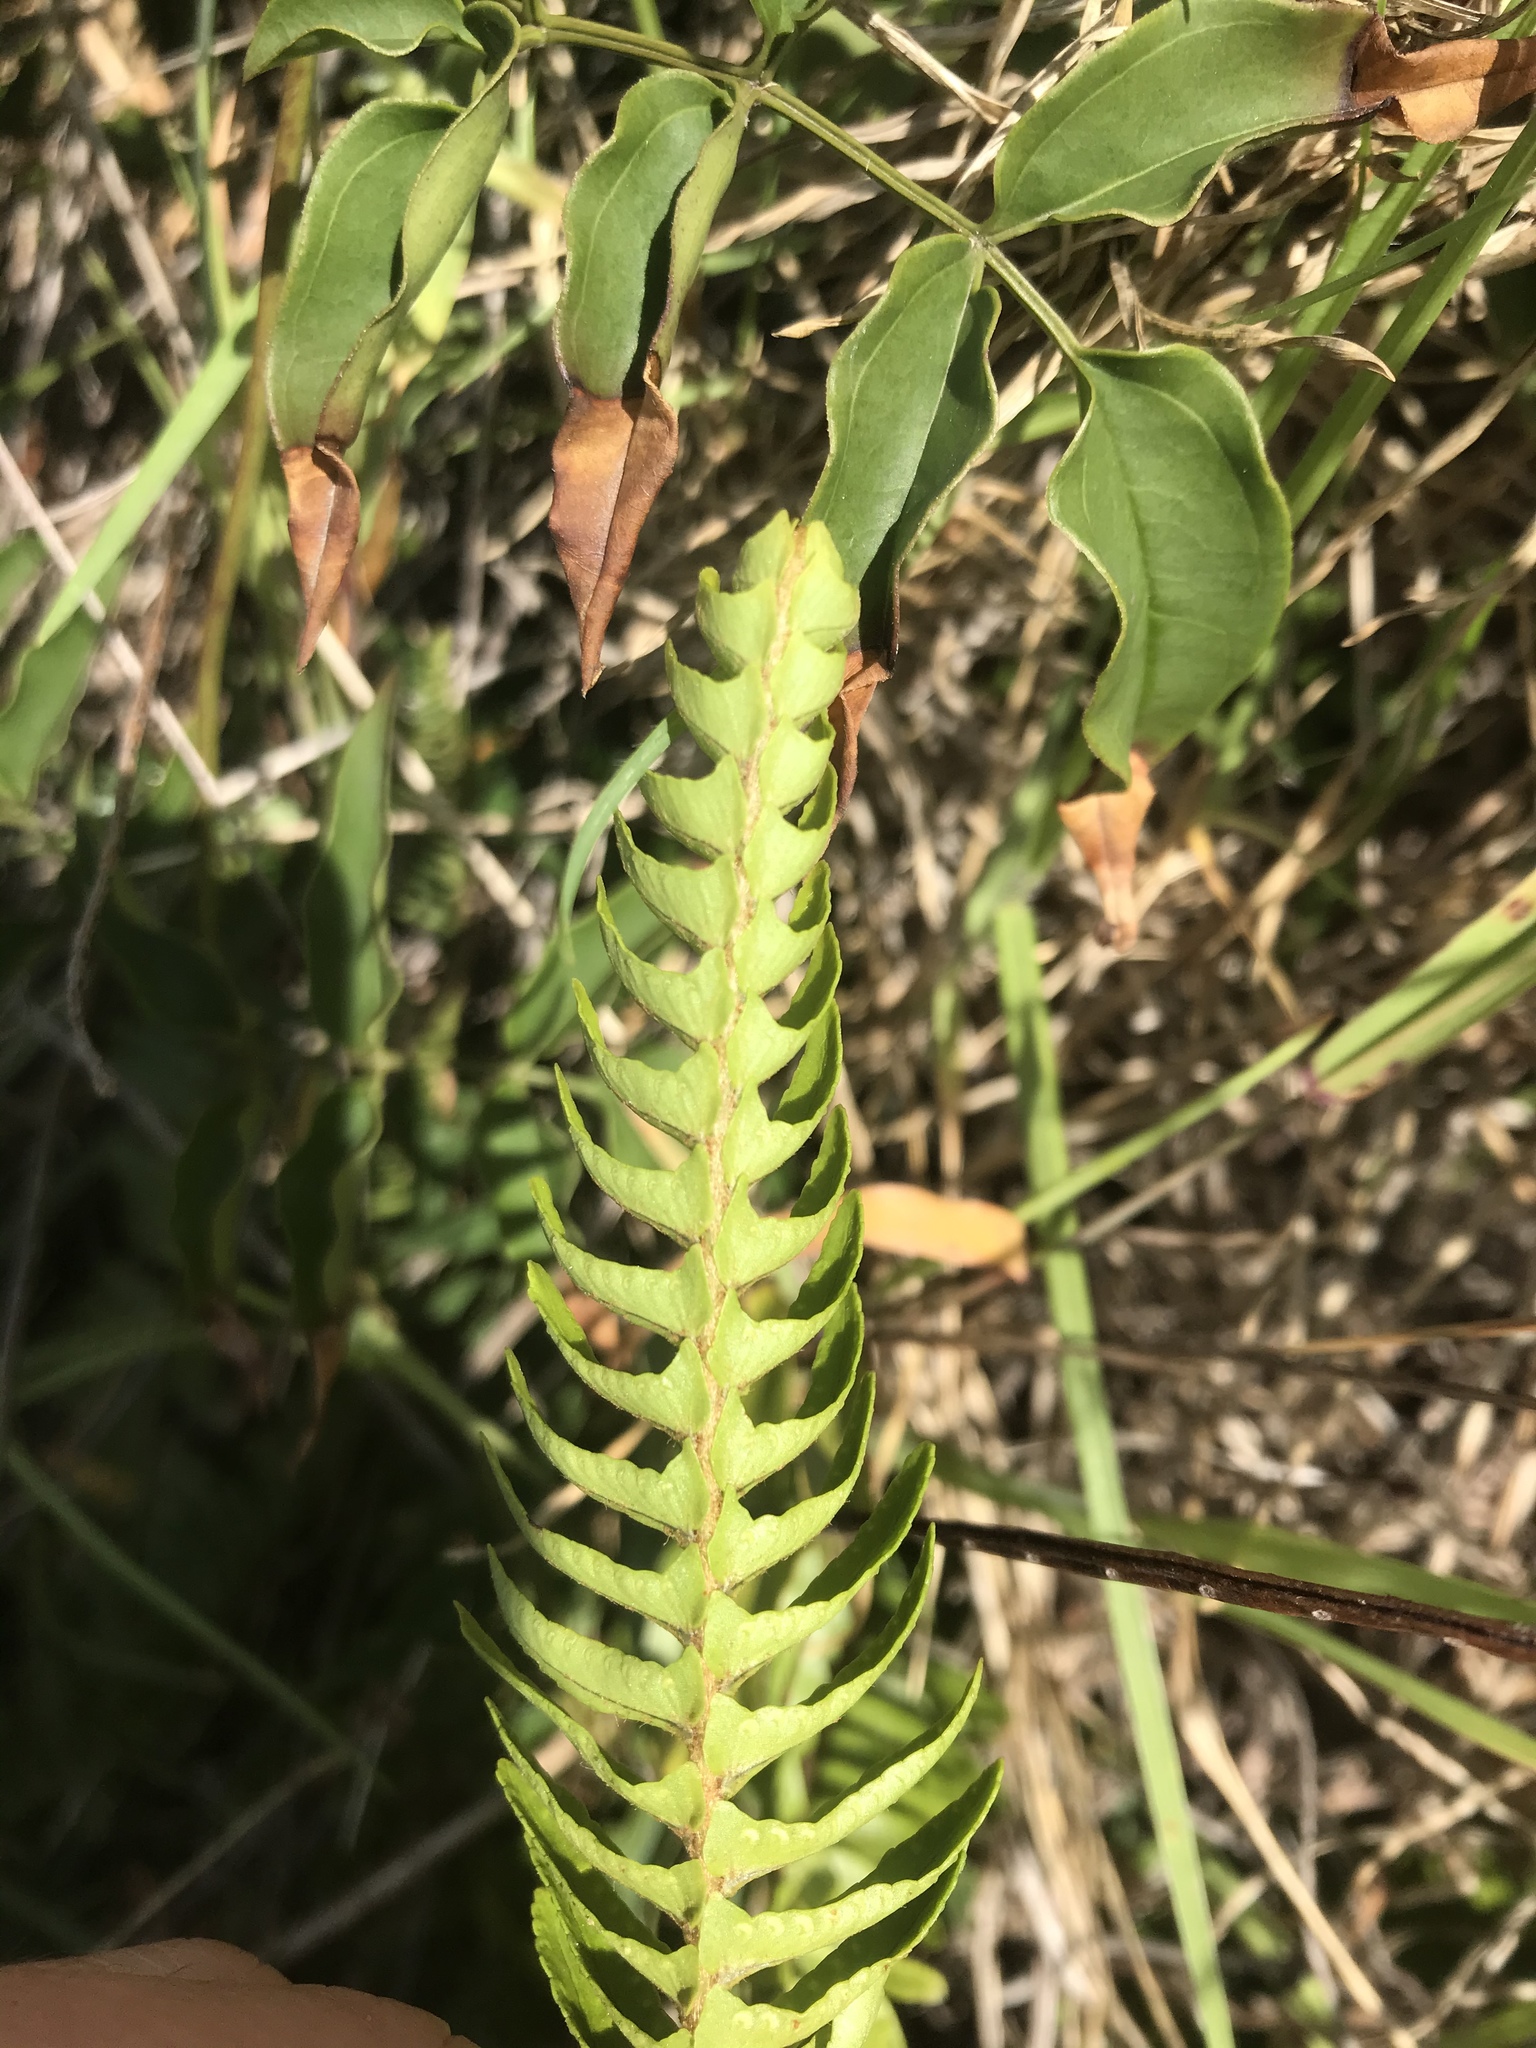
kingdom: Plantae
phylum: Tracheophyta
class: Polypodiopsida
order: Polypodiales
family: Nephrolepidaceae
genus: Nephrolepis
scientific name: Nephrolepis cordifolia
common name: Narrow swordfern
